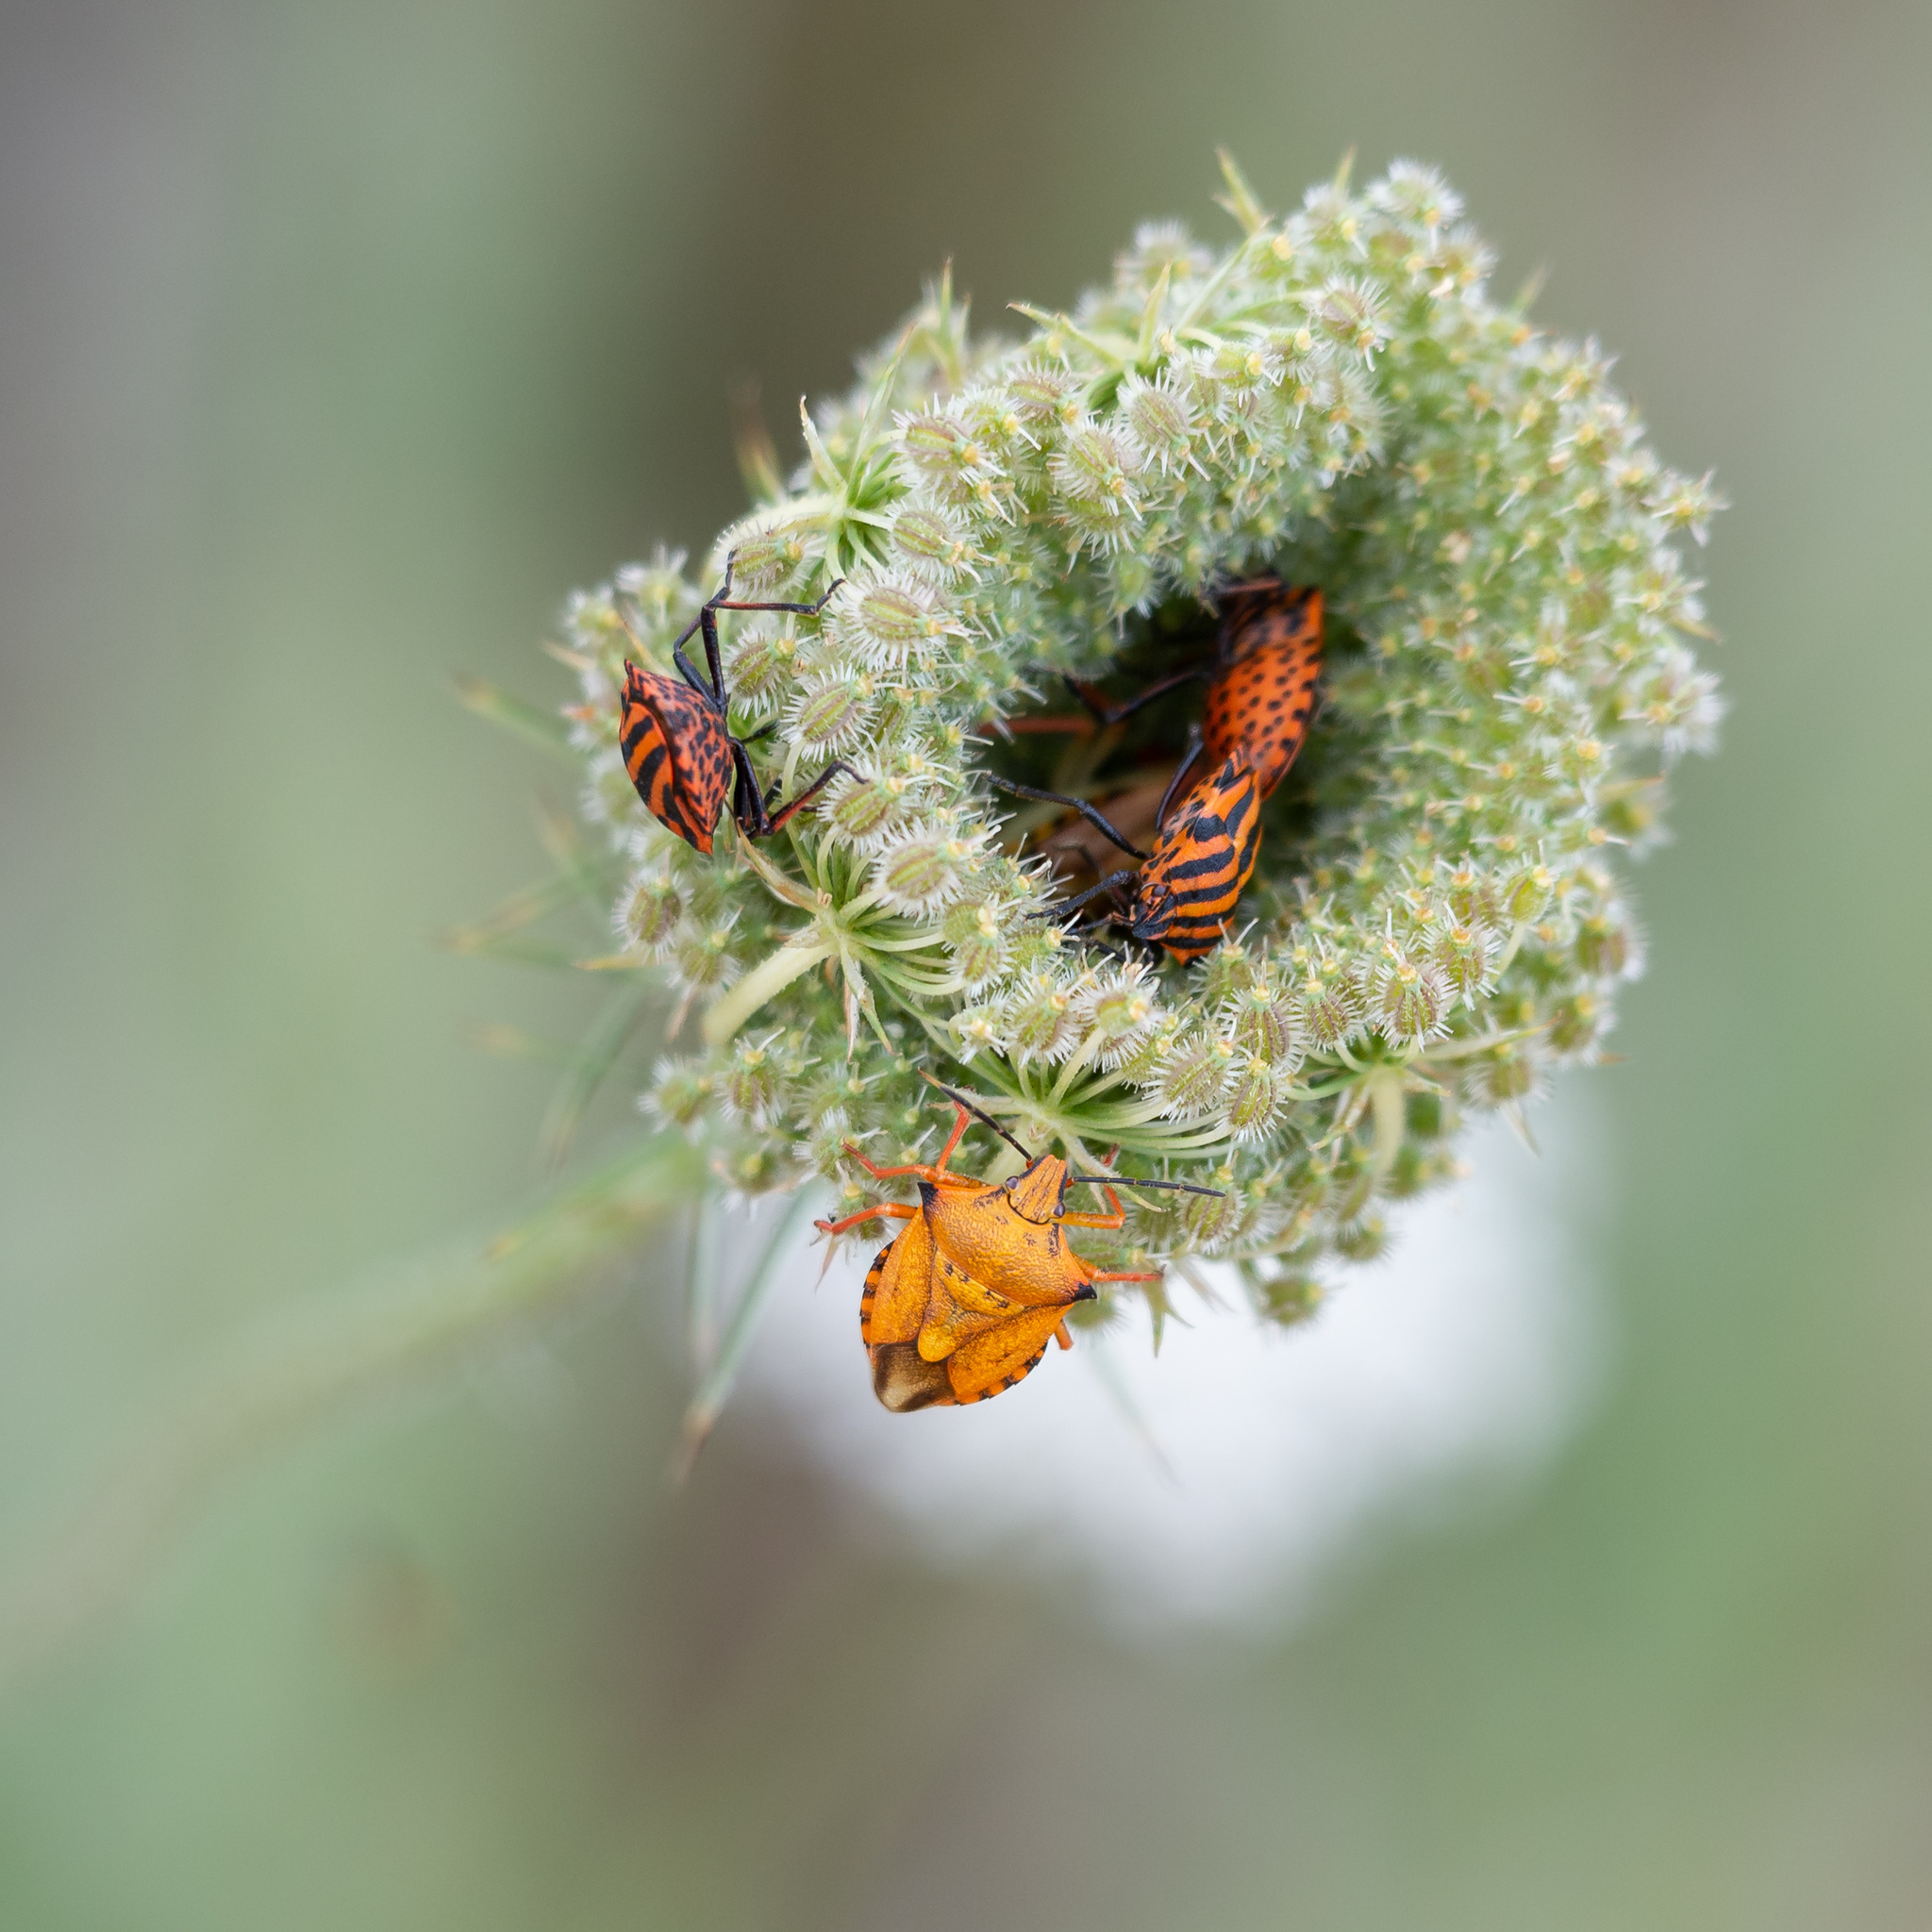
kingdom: Animalia
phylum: Arthropoda
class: Insecta
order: Hemiptera
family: Pentatomidae
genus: Carpocoris
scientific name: Carpocoris mediterraneus
